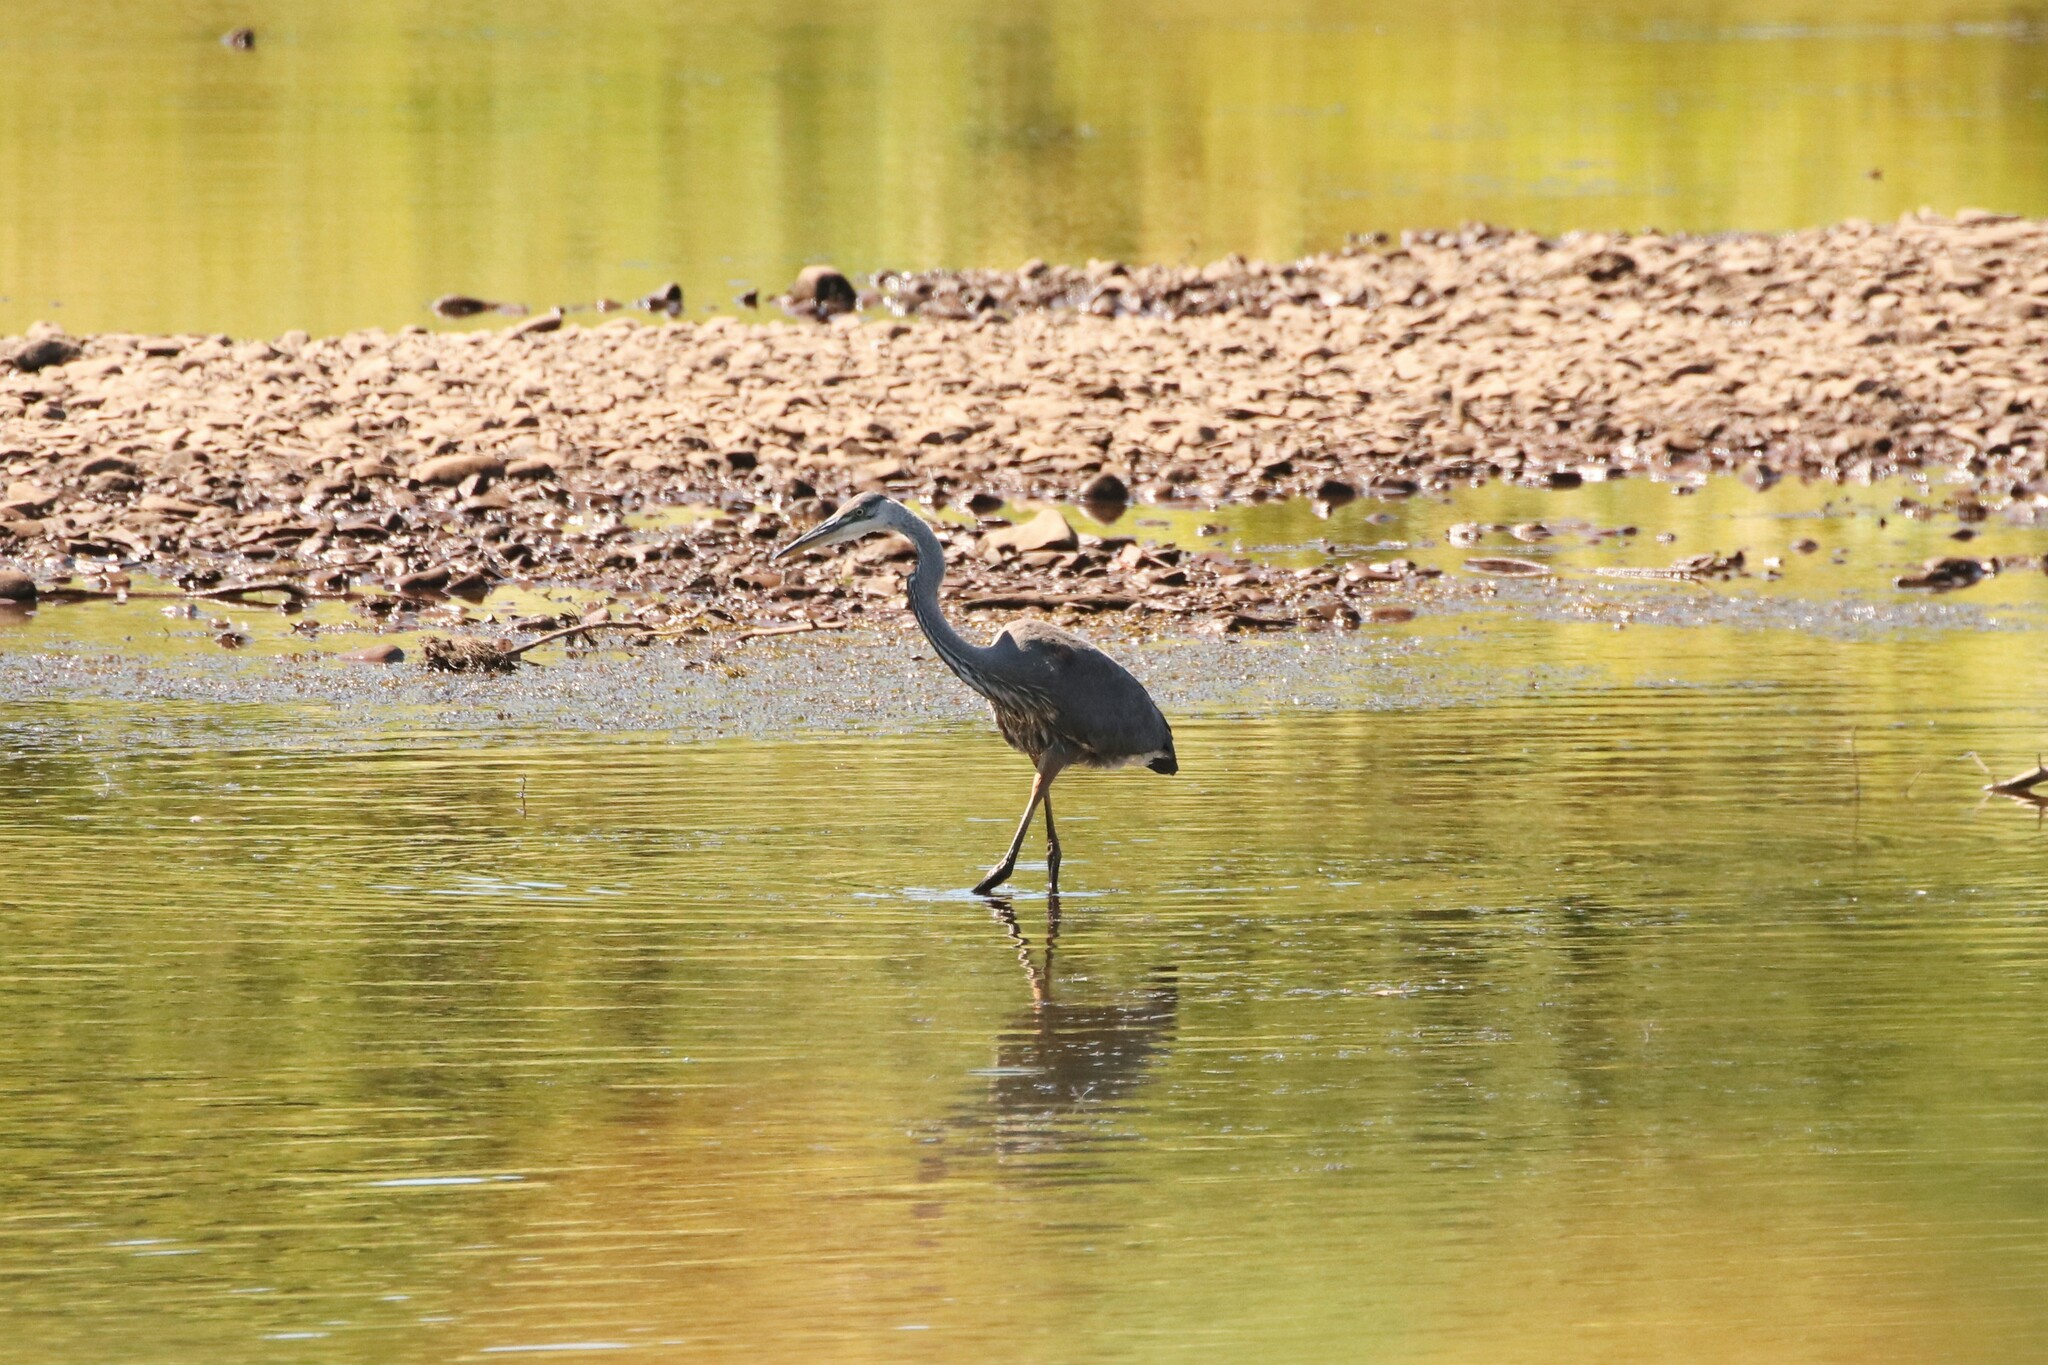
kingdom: Animalia
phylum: Chordata
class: Aves
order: Pelecaniformes
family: Ardeidae
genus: Ardea
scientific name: Ardea herodias
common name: Great blue heron
